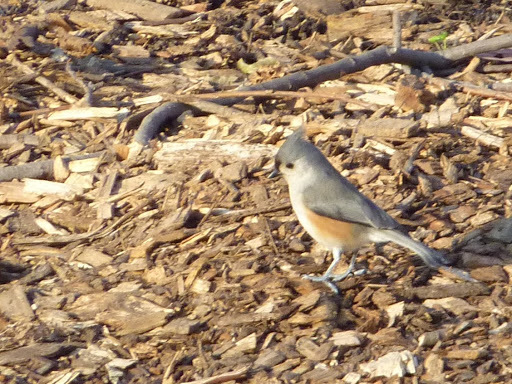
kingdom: Animalia
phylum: Chordata
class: Aves
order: Passeriformes
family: Paridae
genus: Baeolophus
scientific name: Baeolophus bicolor
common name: Tufted titmouse
